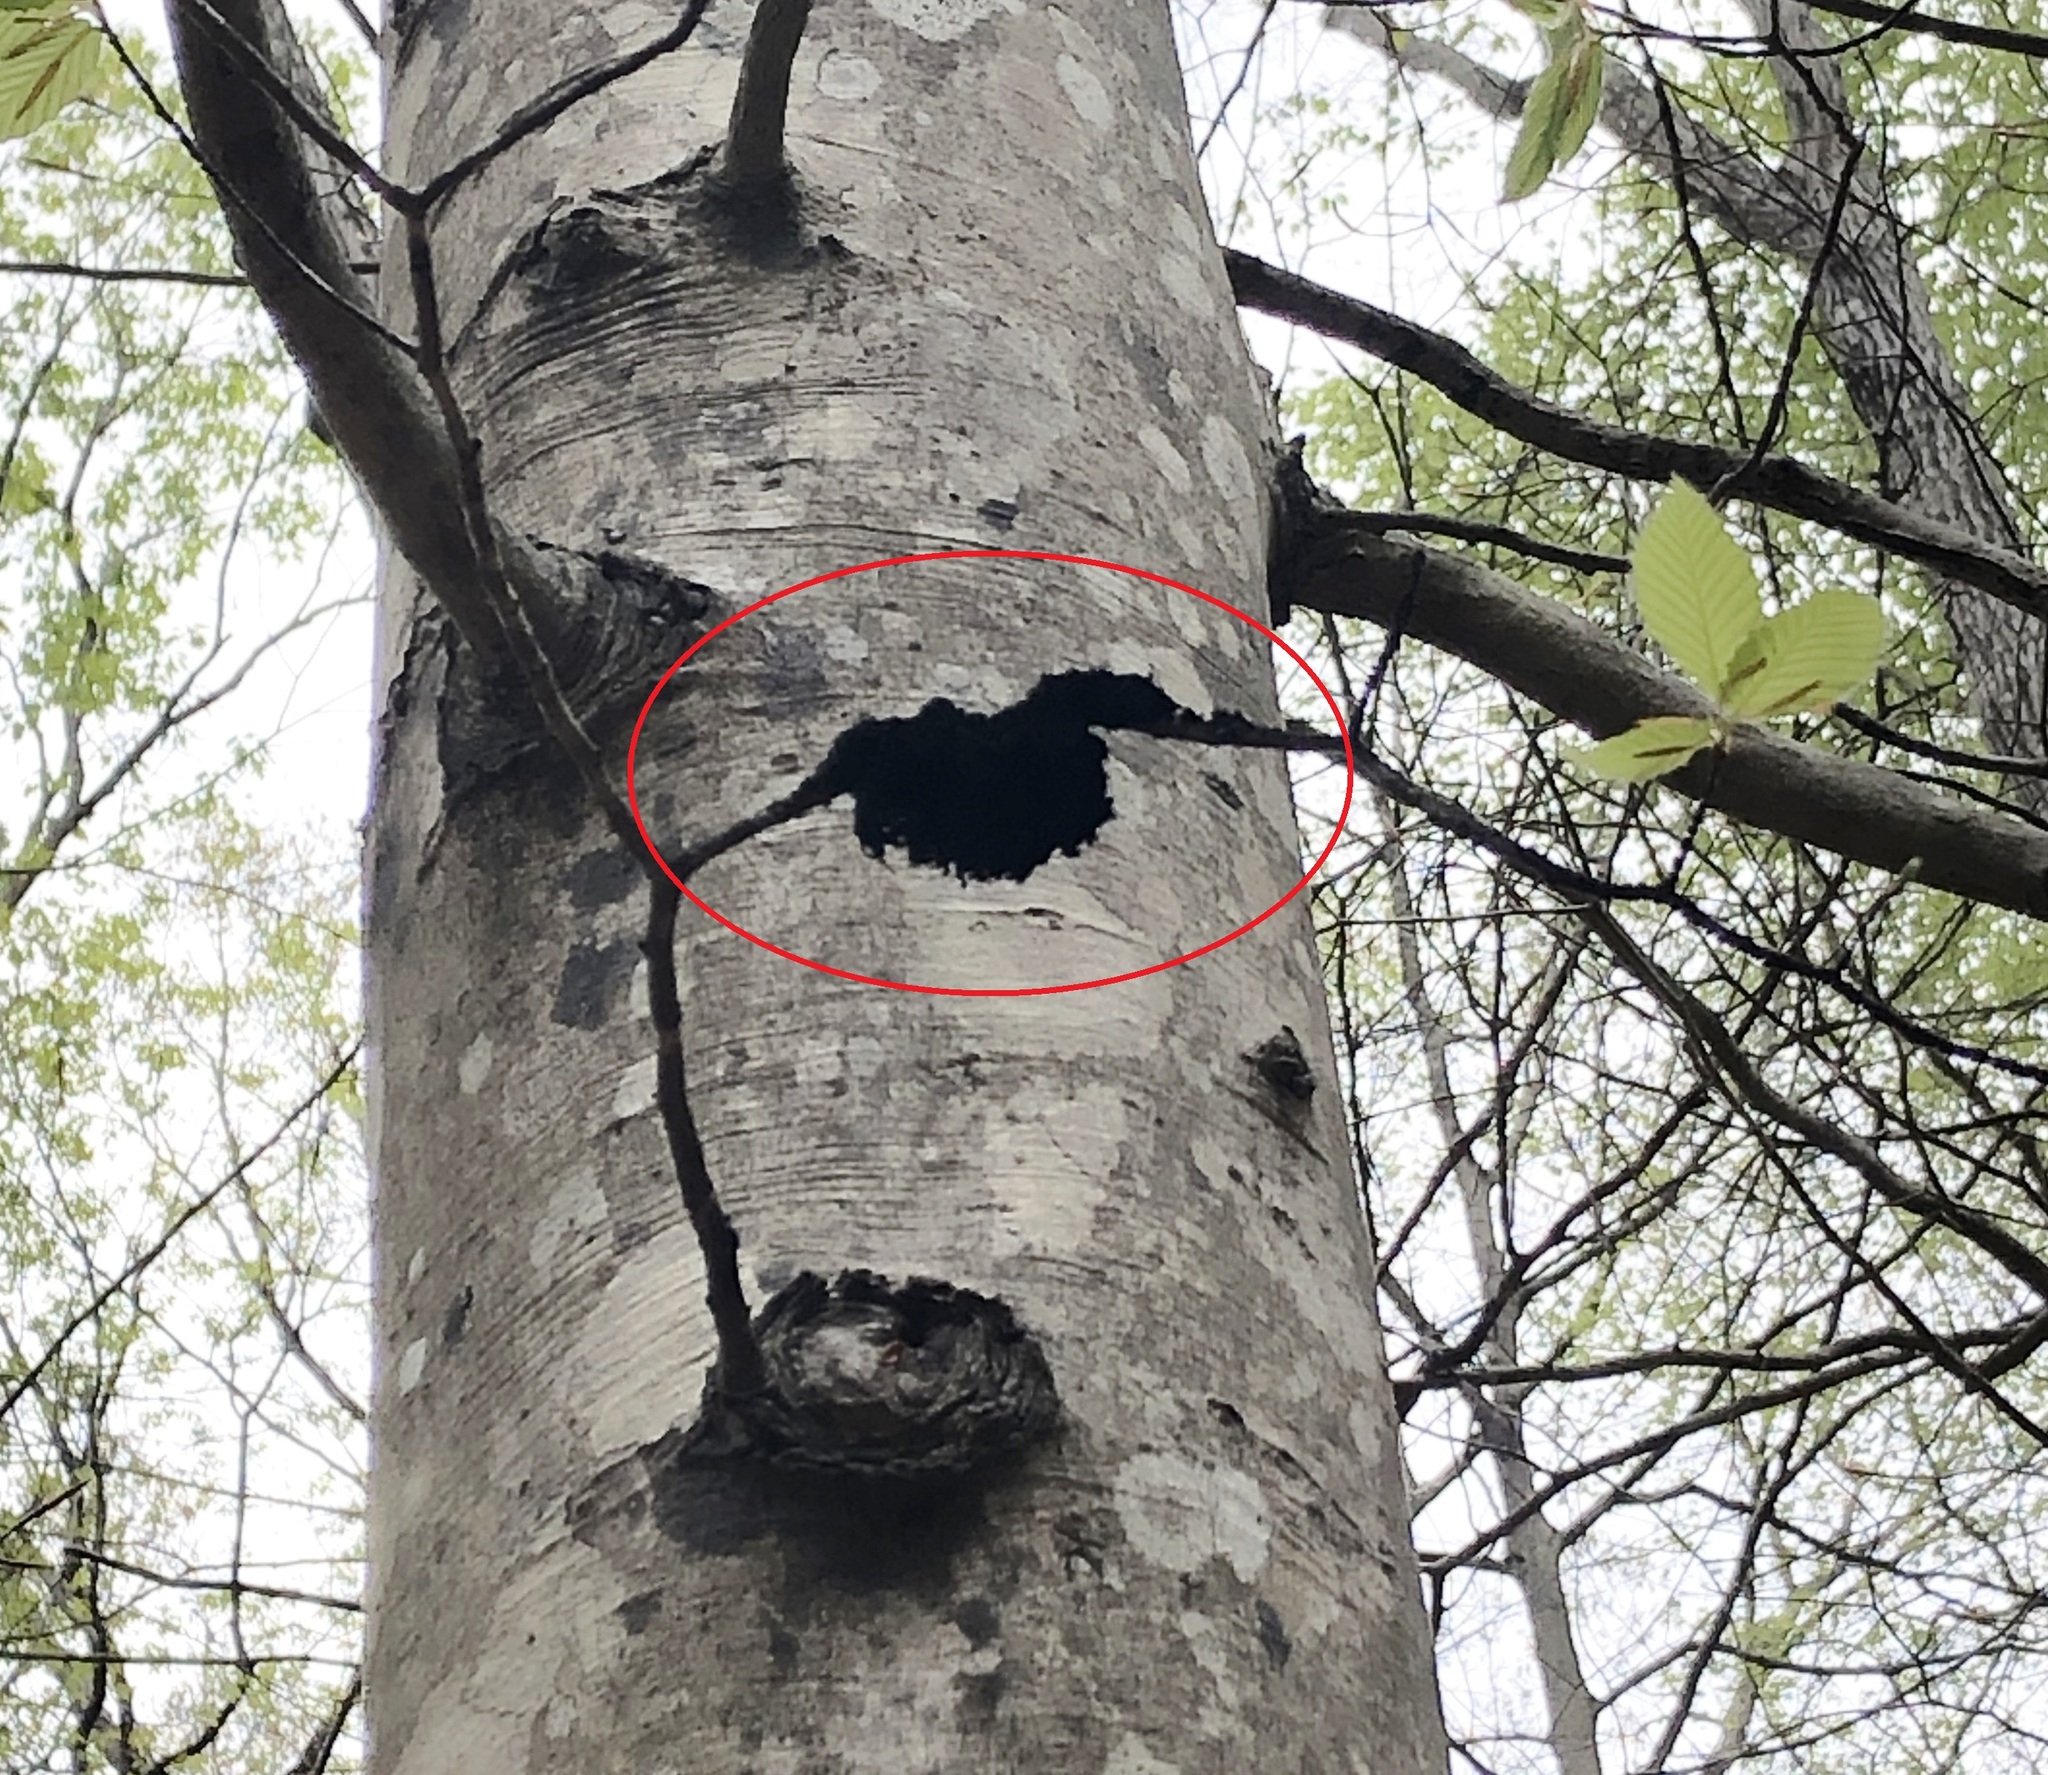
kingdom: Fungi
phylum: Ascomycota
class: Dothideomycetes
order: Capnodiales
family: Capnodiaceae
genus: Scorias
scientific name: Scorias spongiosa
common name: Black sooty mold
